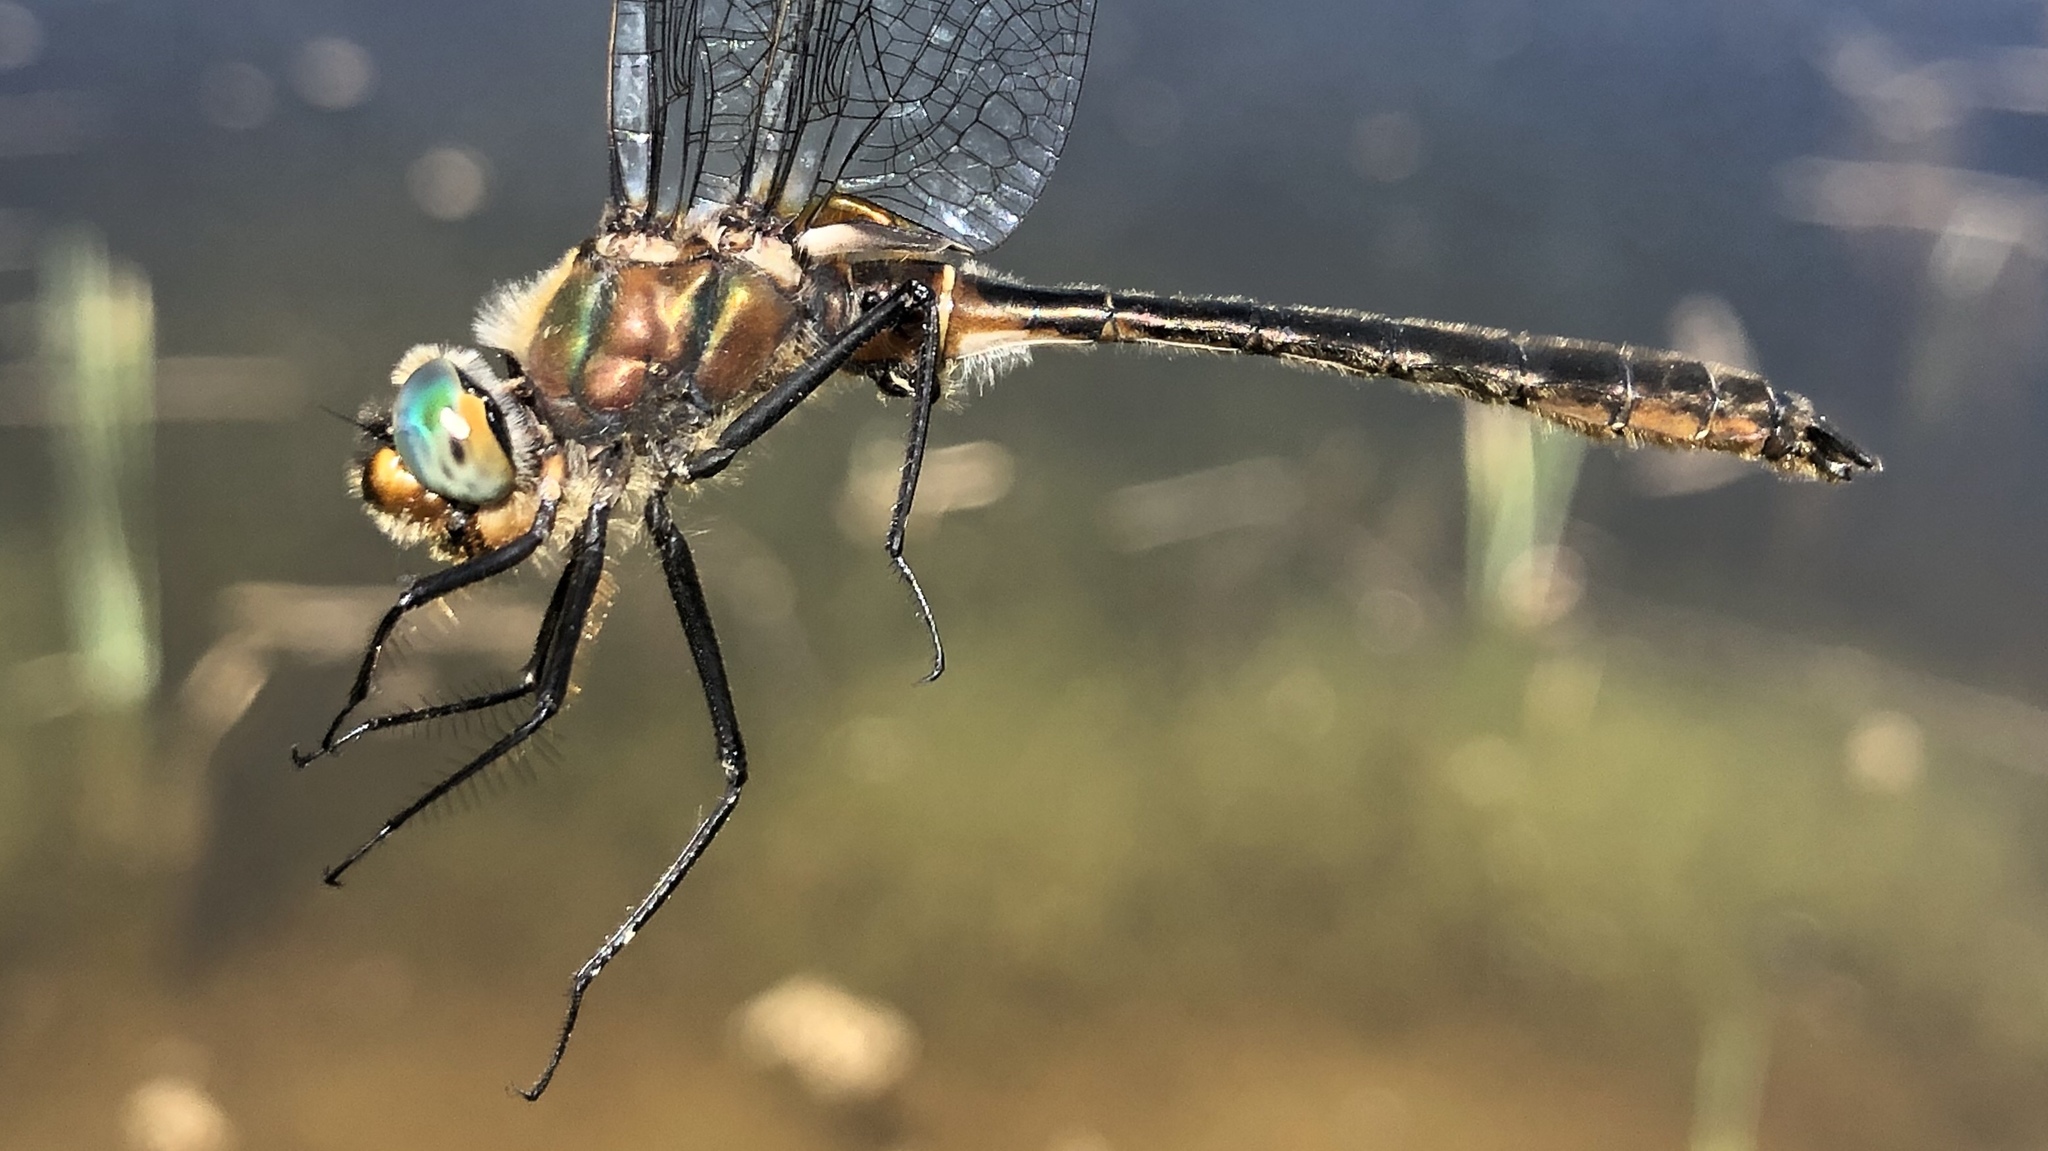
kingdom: Animalia
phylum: Arthropoda
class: Insecta
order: Odonata
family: Corduliidae
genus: Cordulia
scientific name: Cordulia shurtleffii
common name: American emerald
